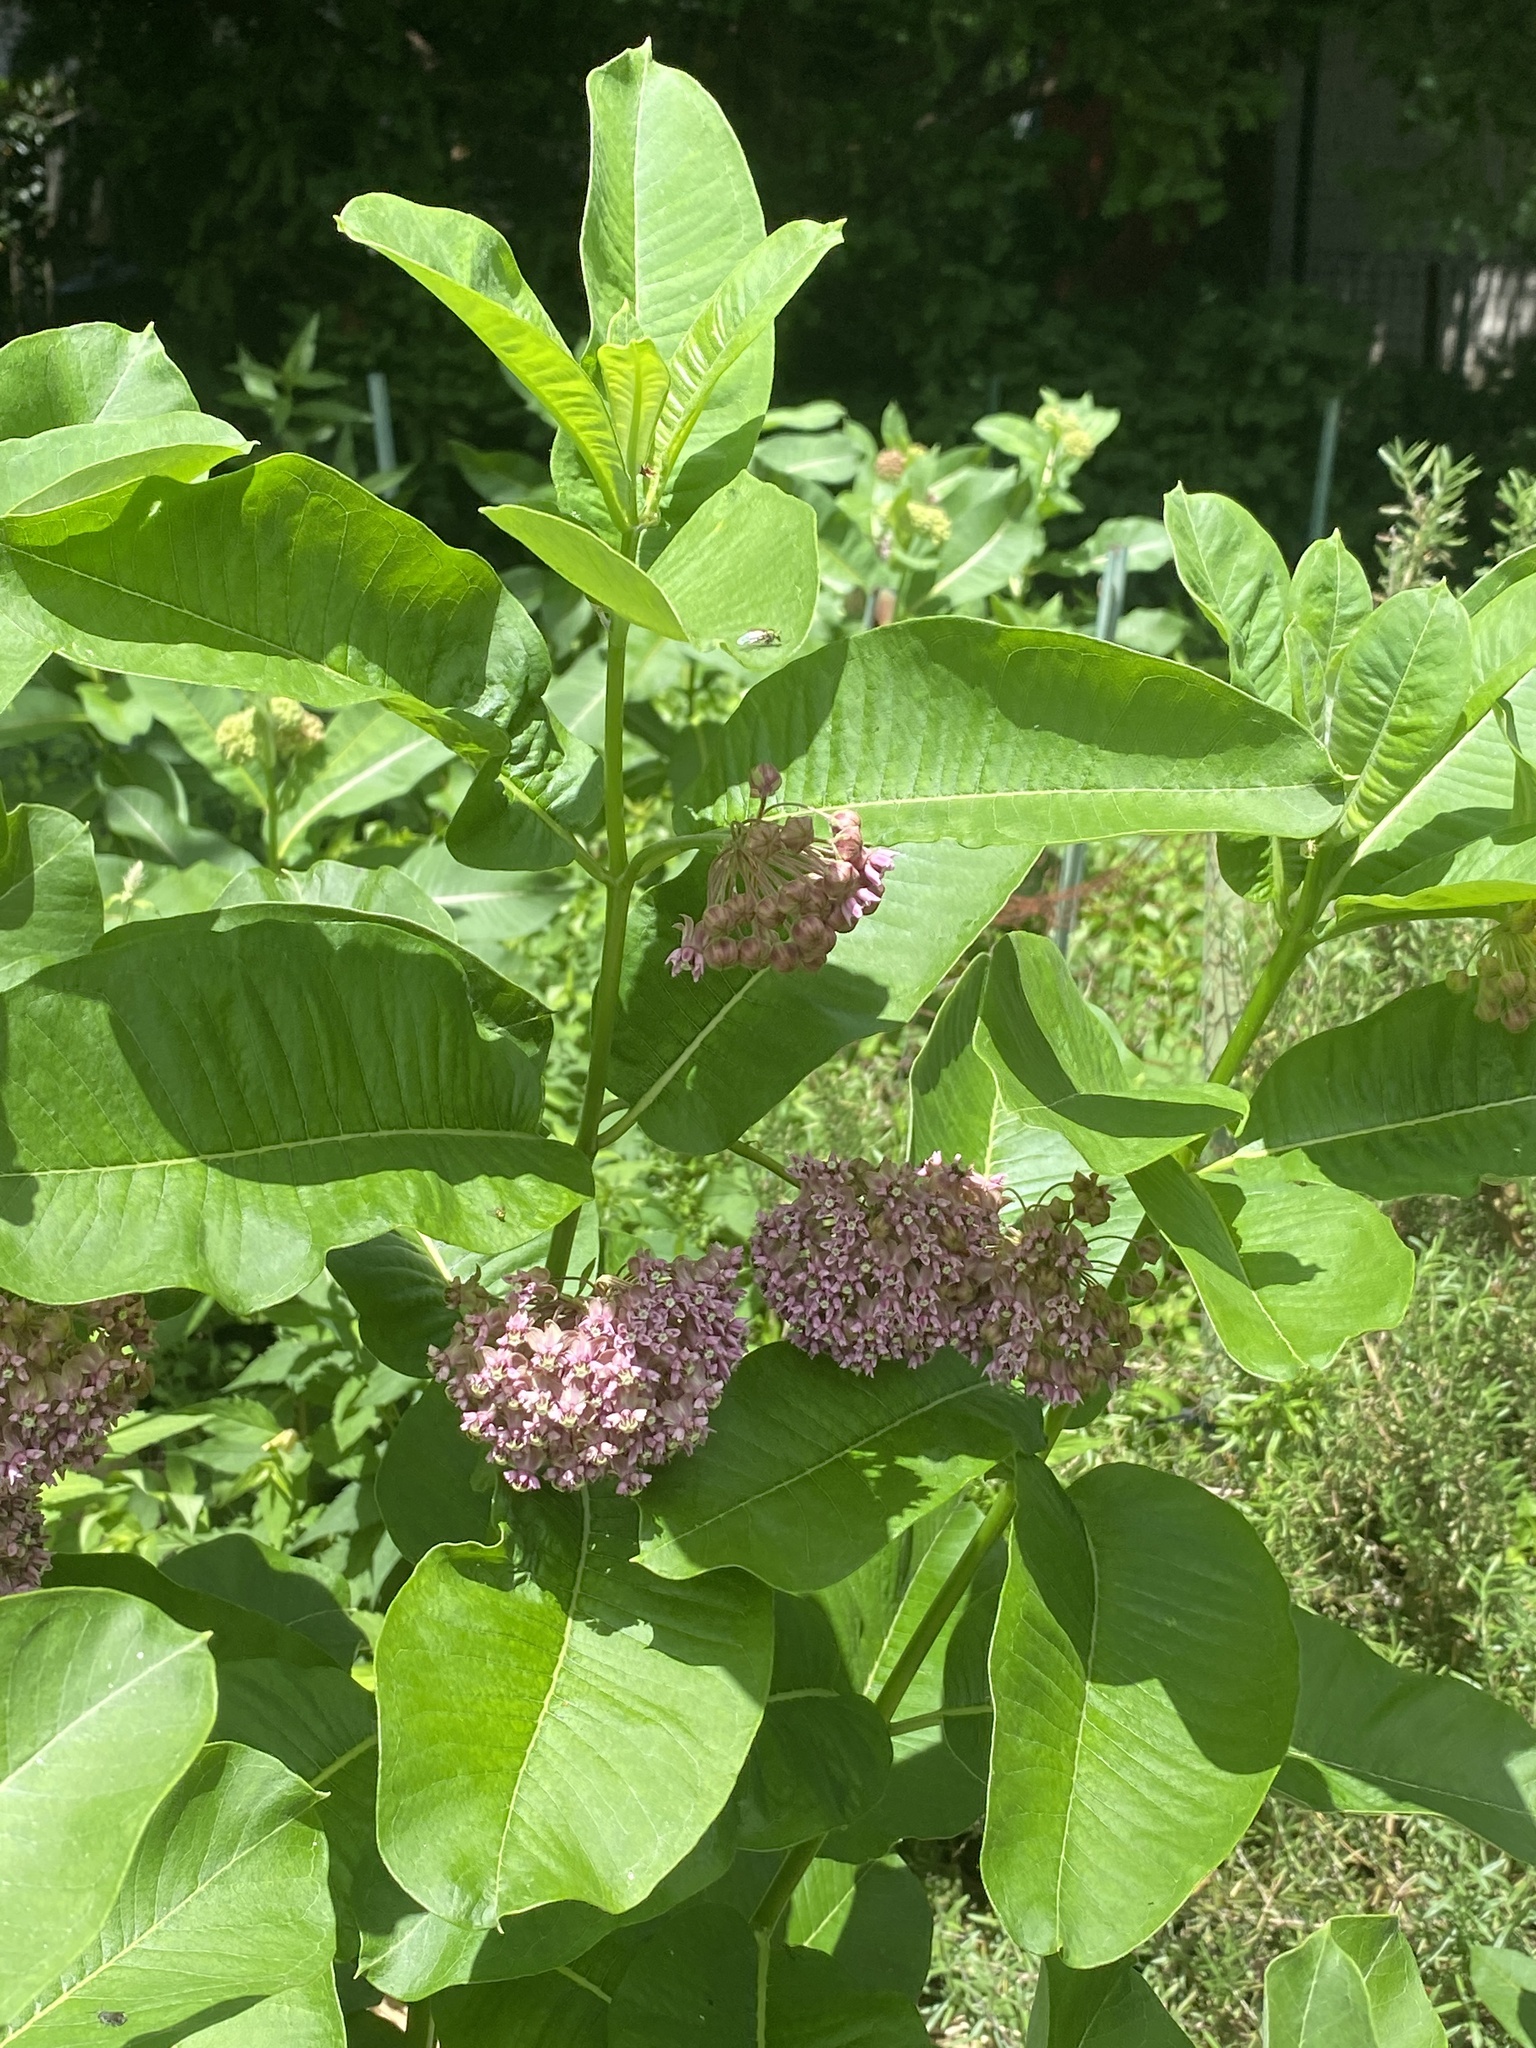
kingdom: Plantae
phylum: Tracheophyta
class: Magnoliopsida
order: Gentianales
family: Apocynaceae
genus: Asclepias
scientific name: Asclepias syriaca
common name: Common milkweed
